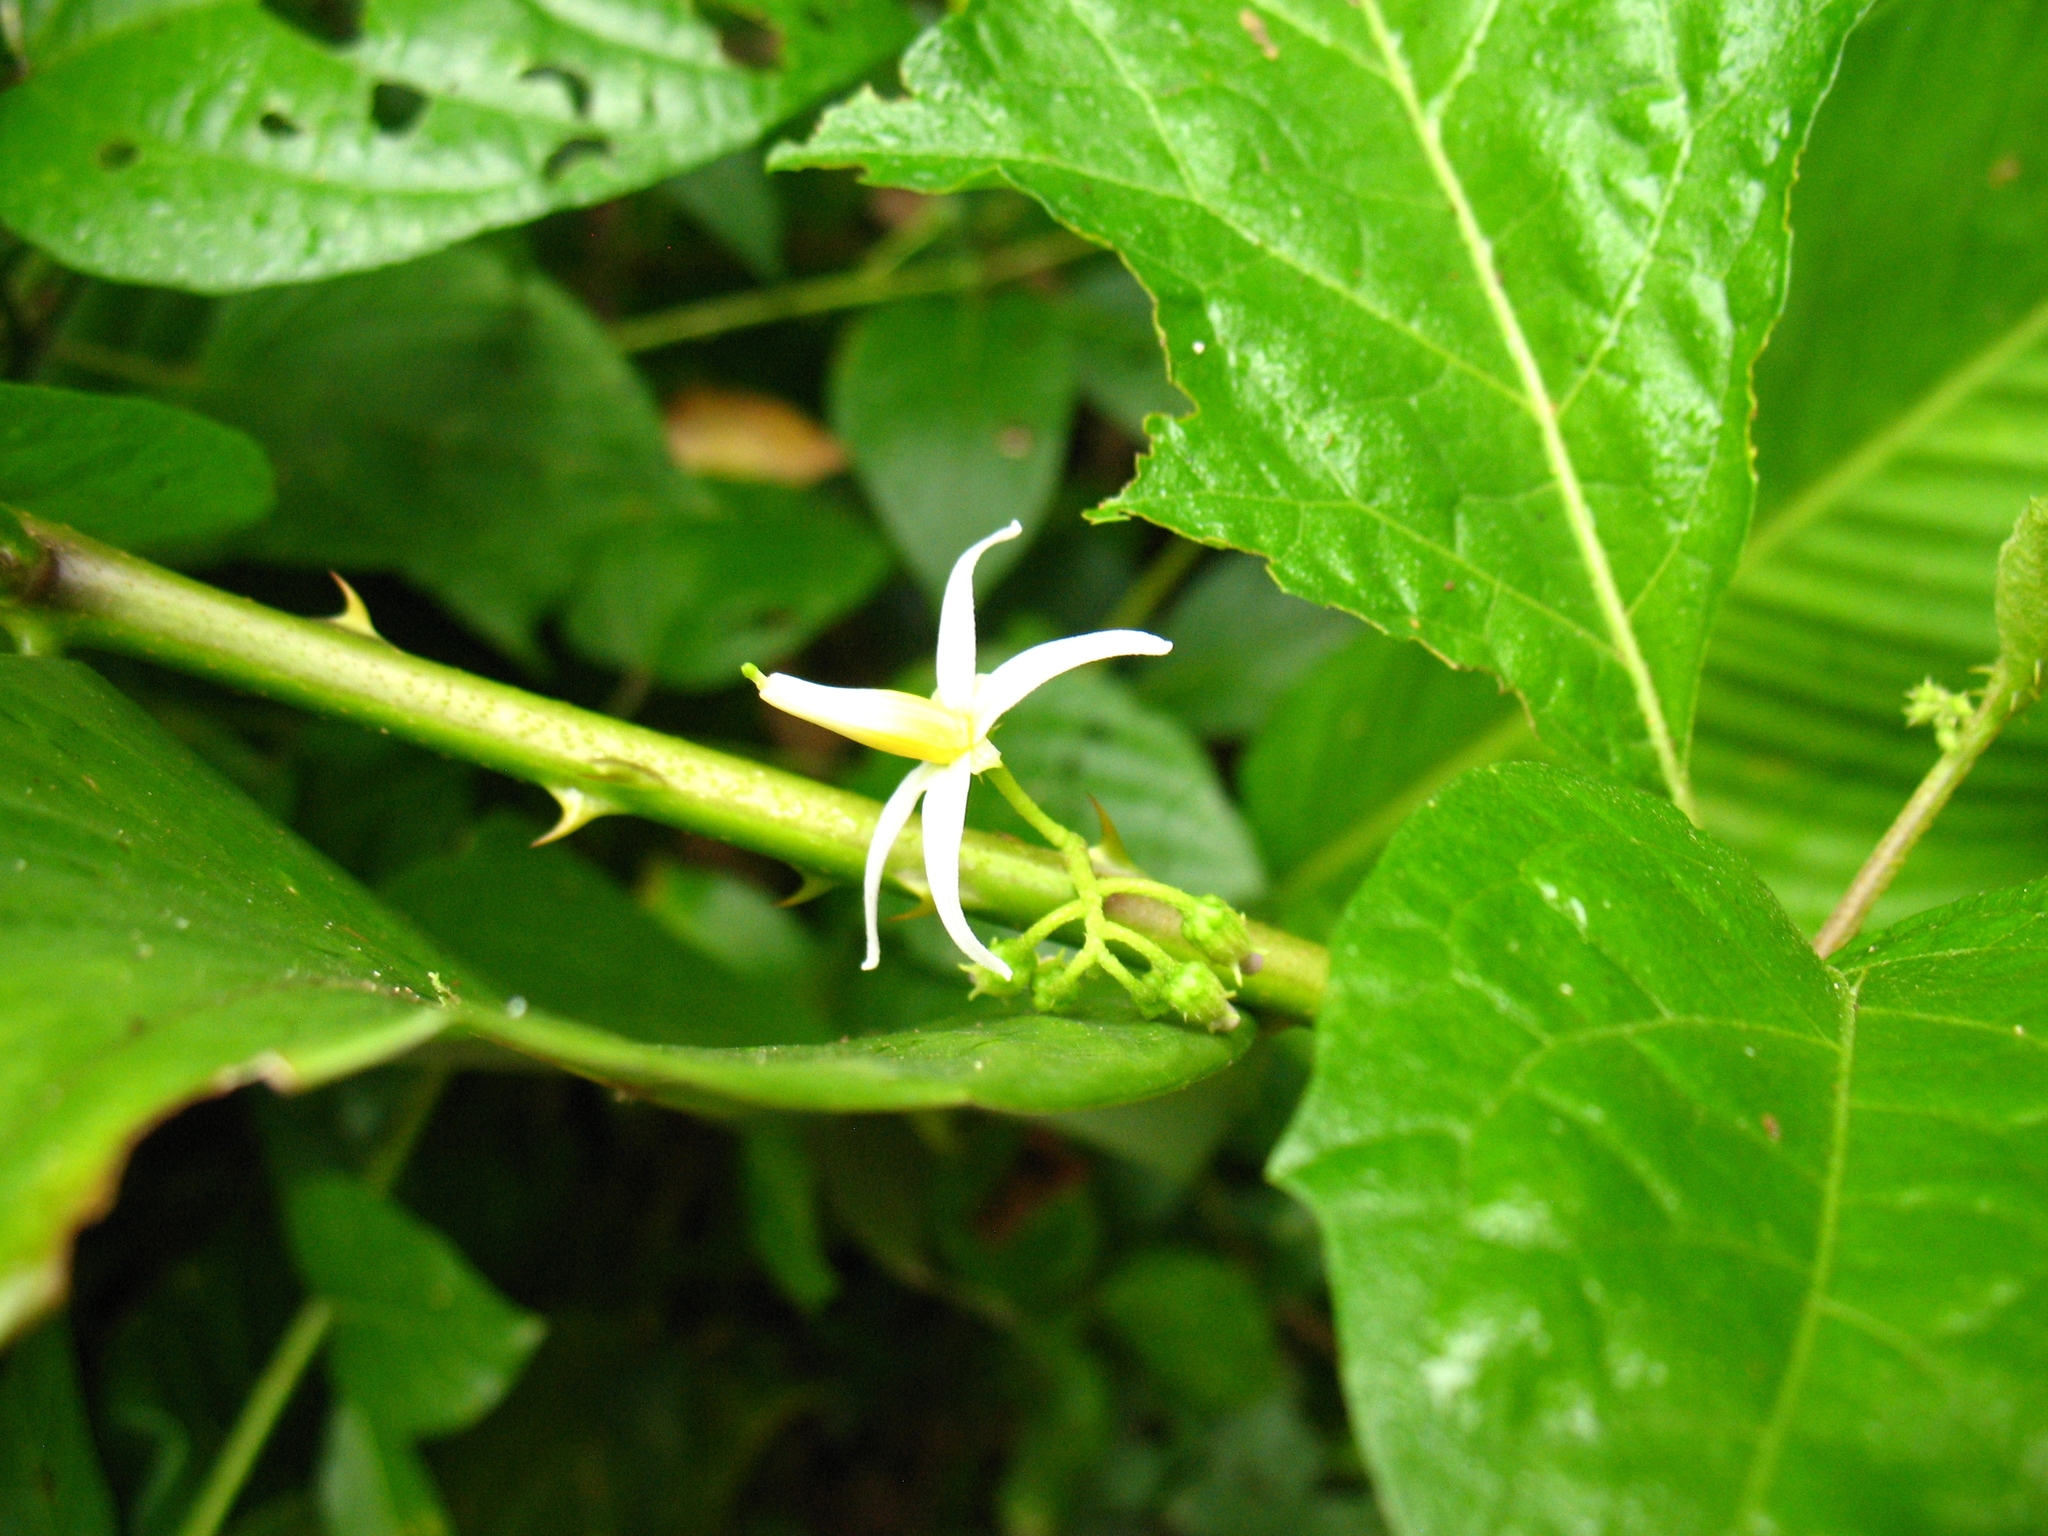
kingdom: Plantae
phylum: Tracheophyta
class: Magnoliopsida
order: Solanales
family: Solanaceae
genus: Solanum
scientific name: Solanum volubile
